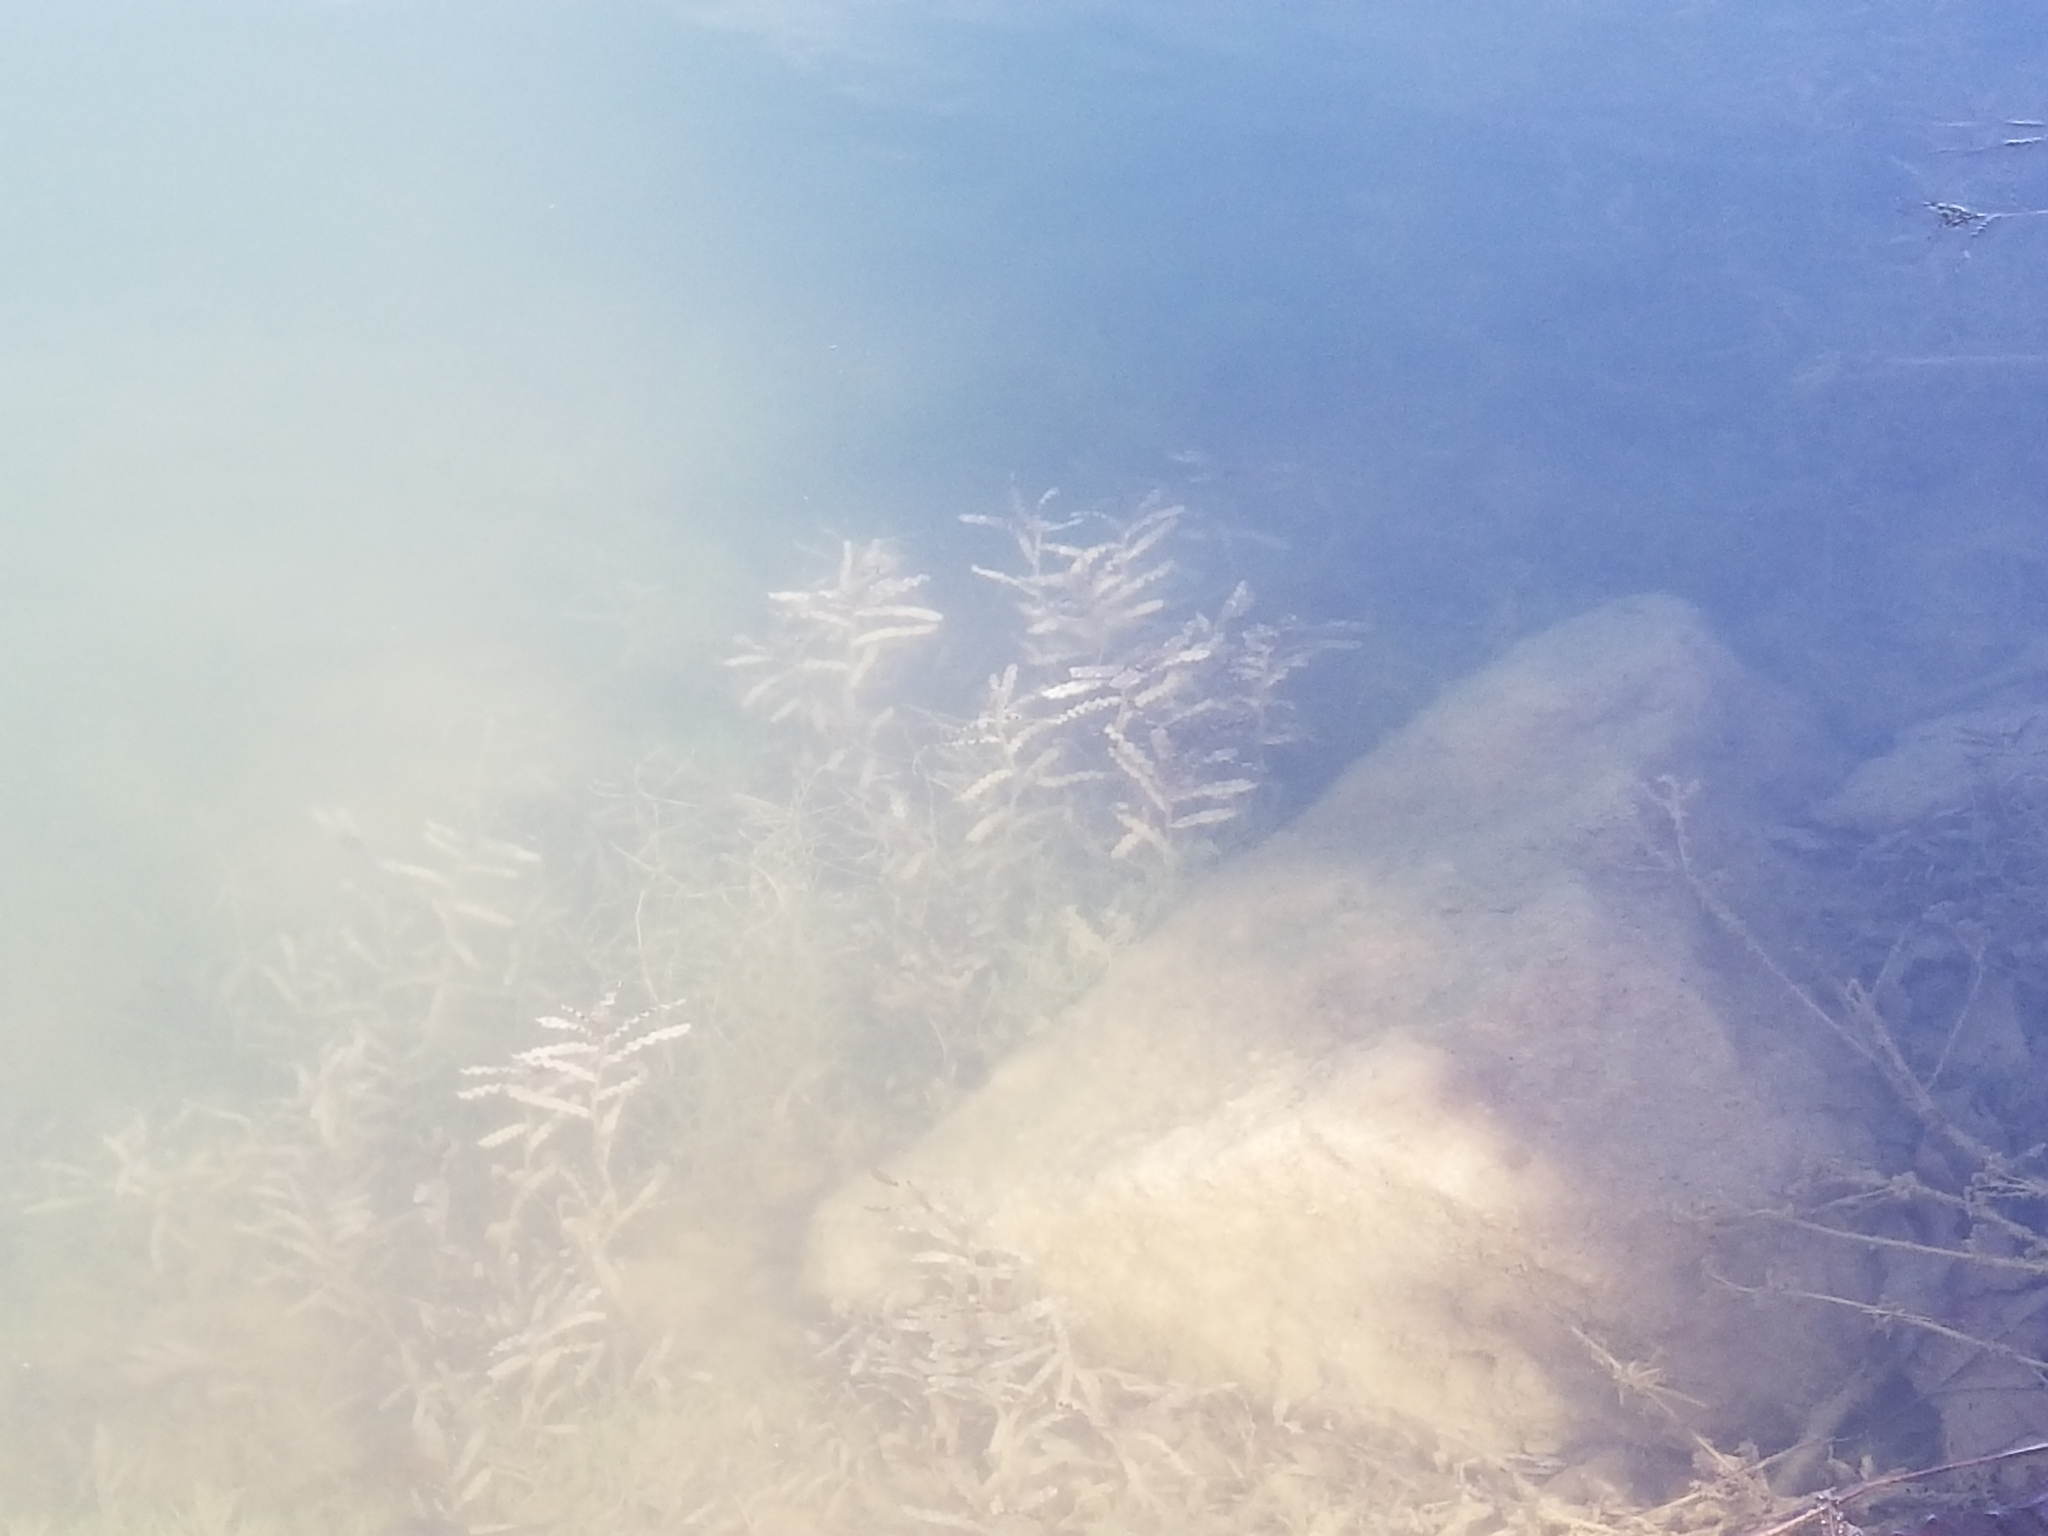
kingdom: Plantae
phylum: Tracheophyta
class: Liliopsida
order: Alismatales
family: Potamogetonaceae
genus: Potamogeton
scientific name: Potamogeton crispus
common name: Curled pondweed
